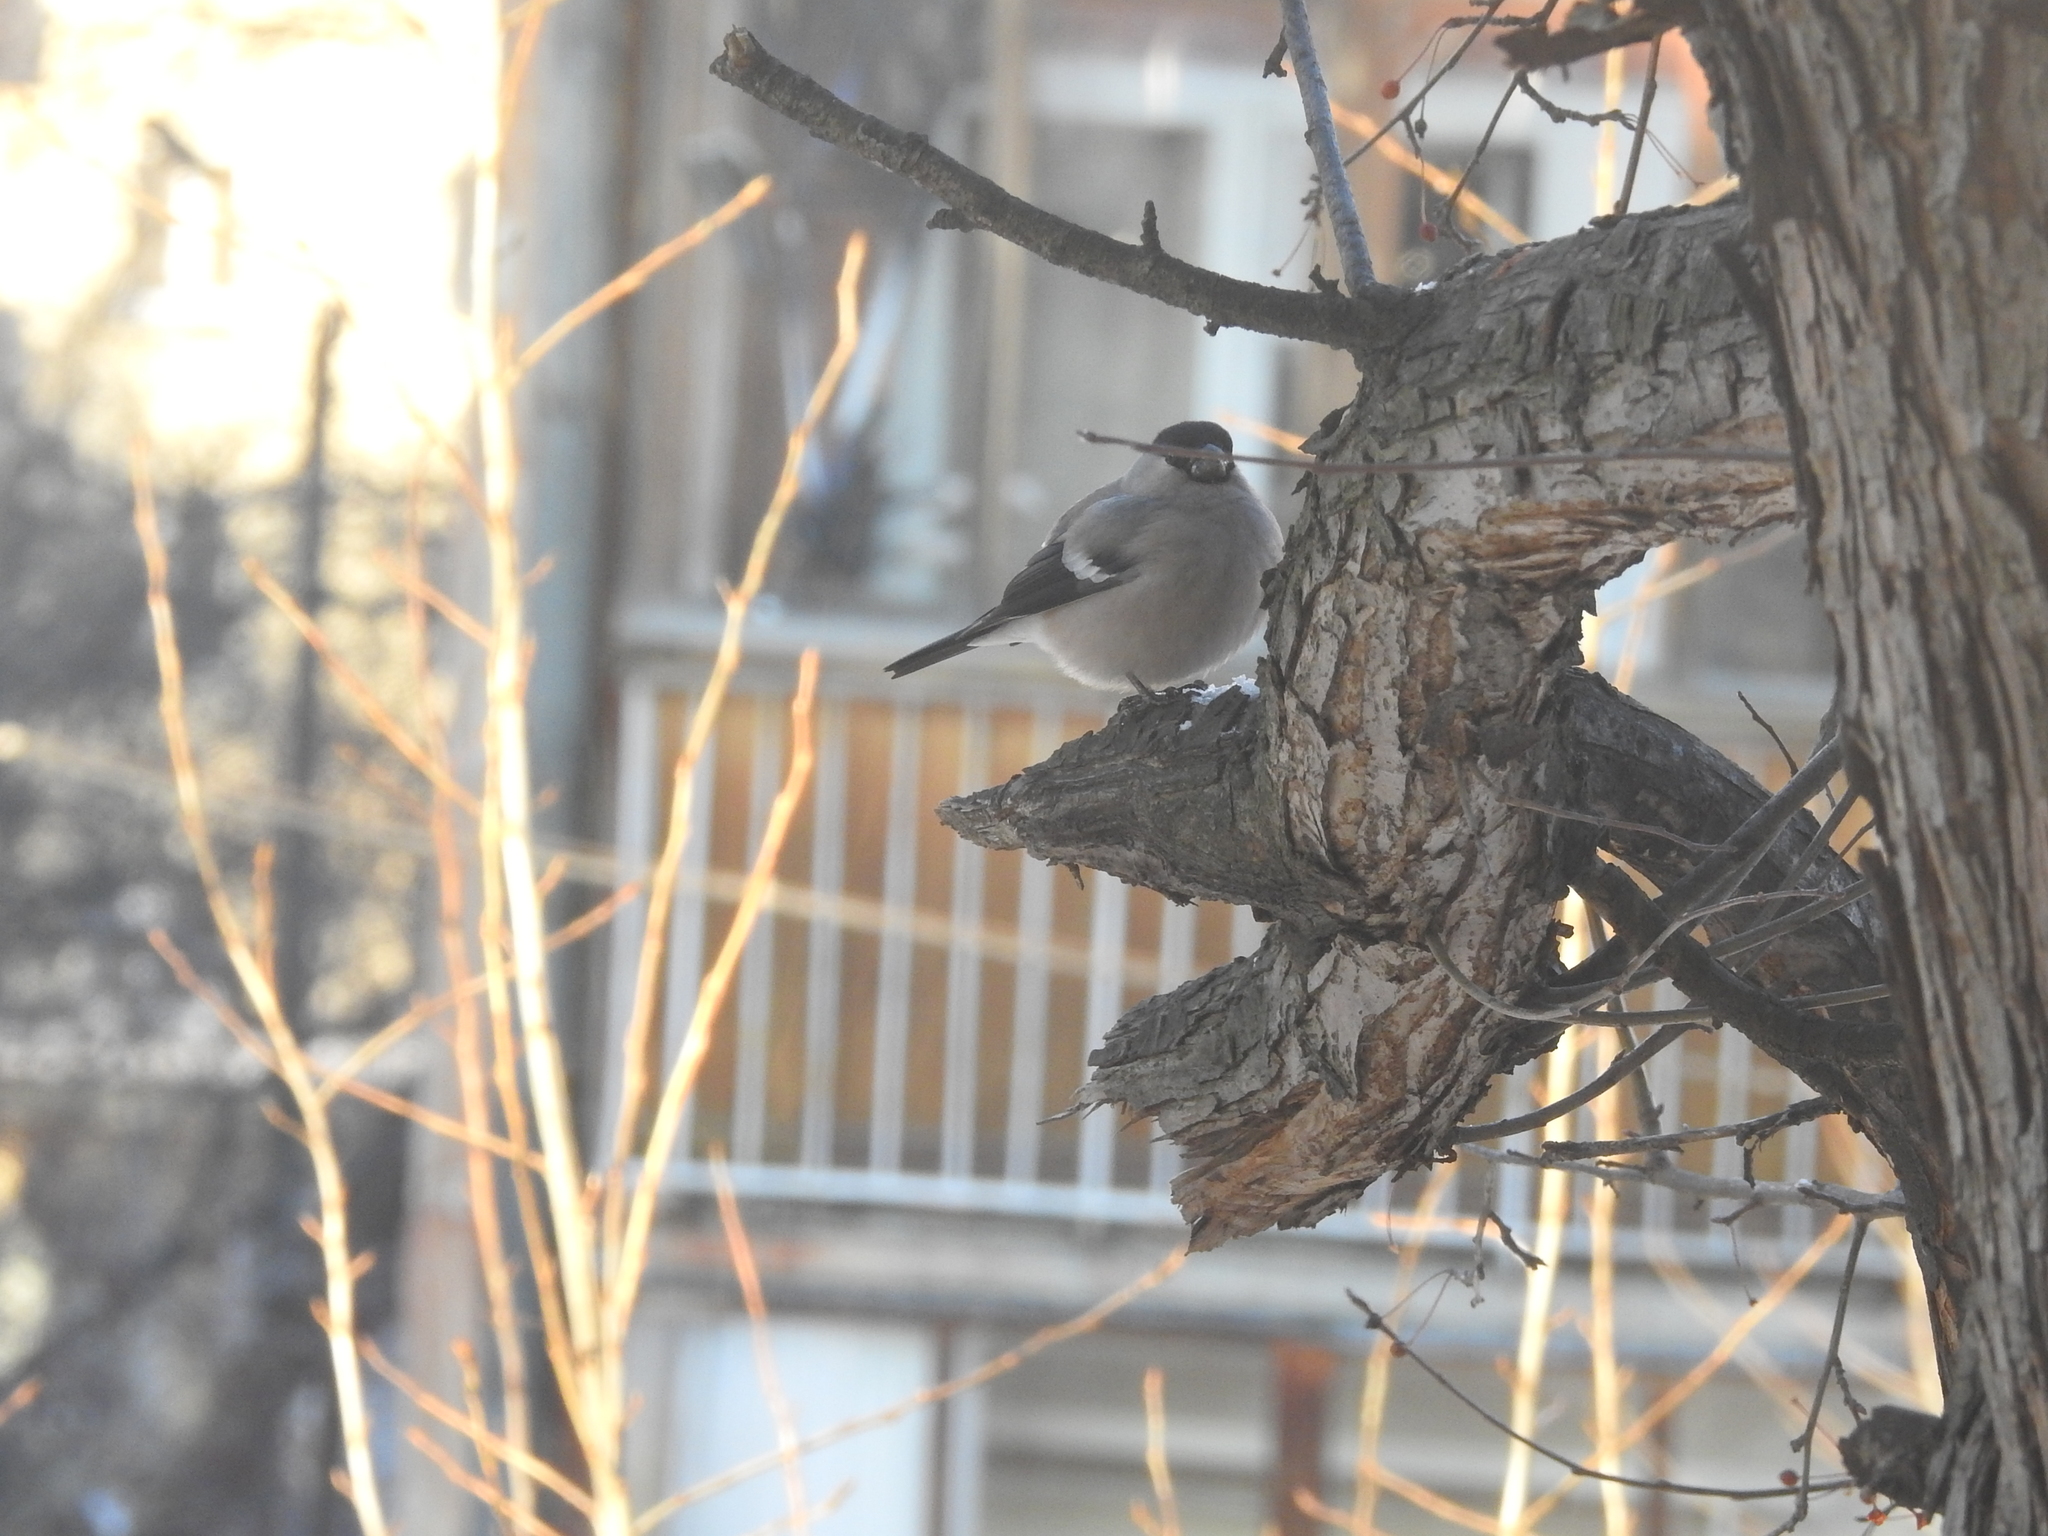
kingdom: Animalia
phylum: Chordata
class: Aves
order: Passeriformes
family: Fringillidae
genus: Pyrrhula
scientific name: Pyrrhula pyrrhula
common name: Eurasian bullfinch
